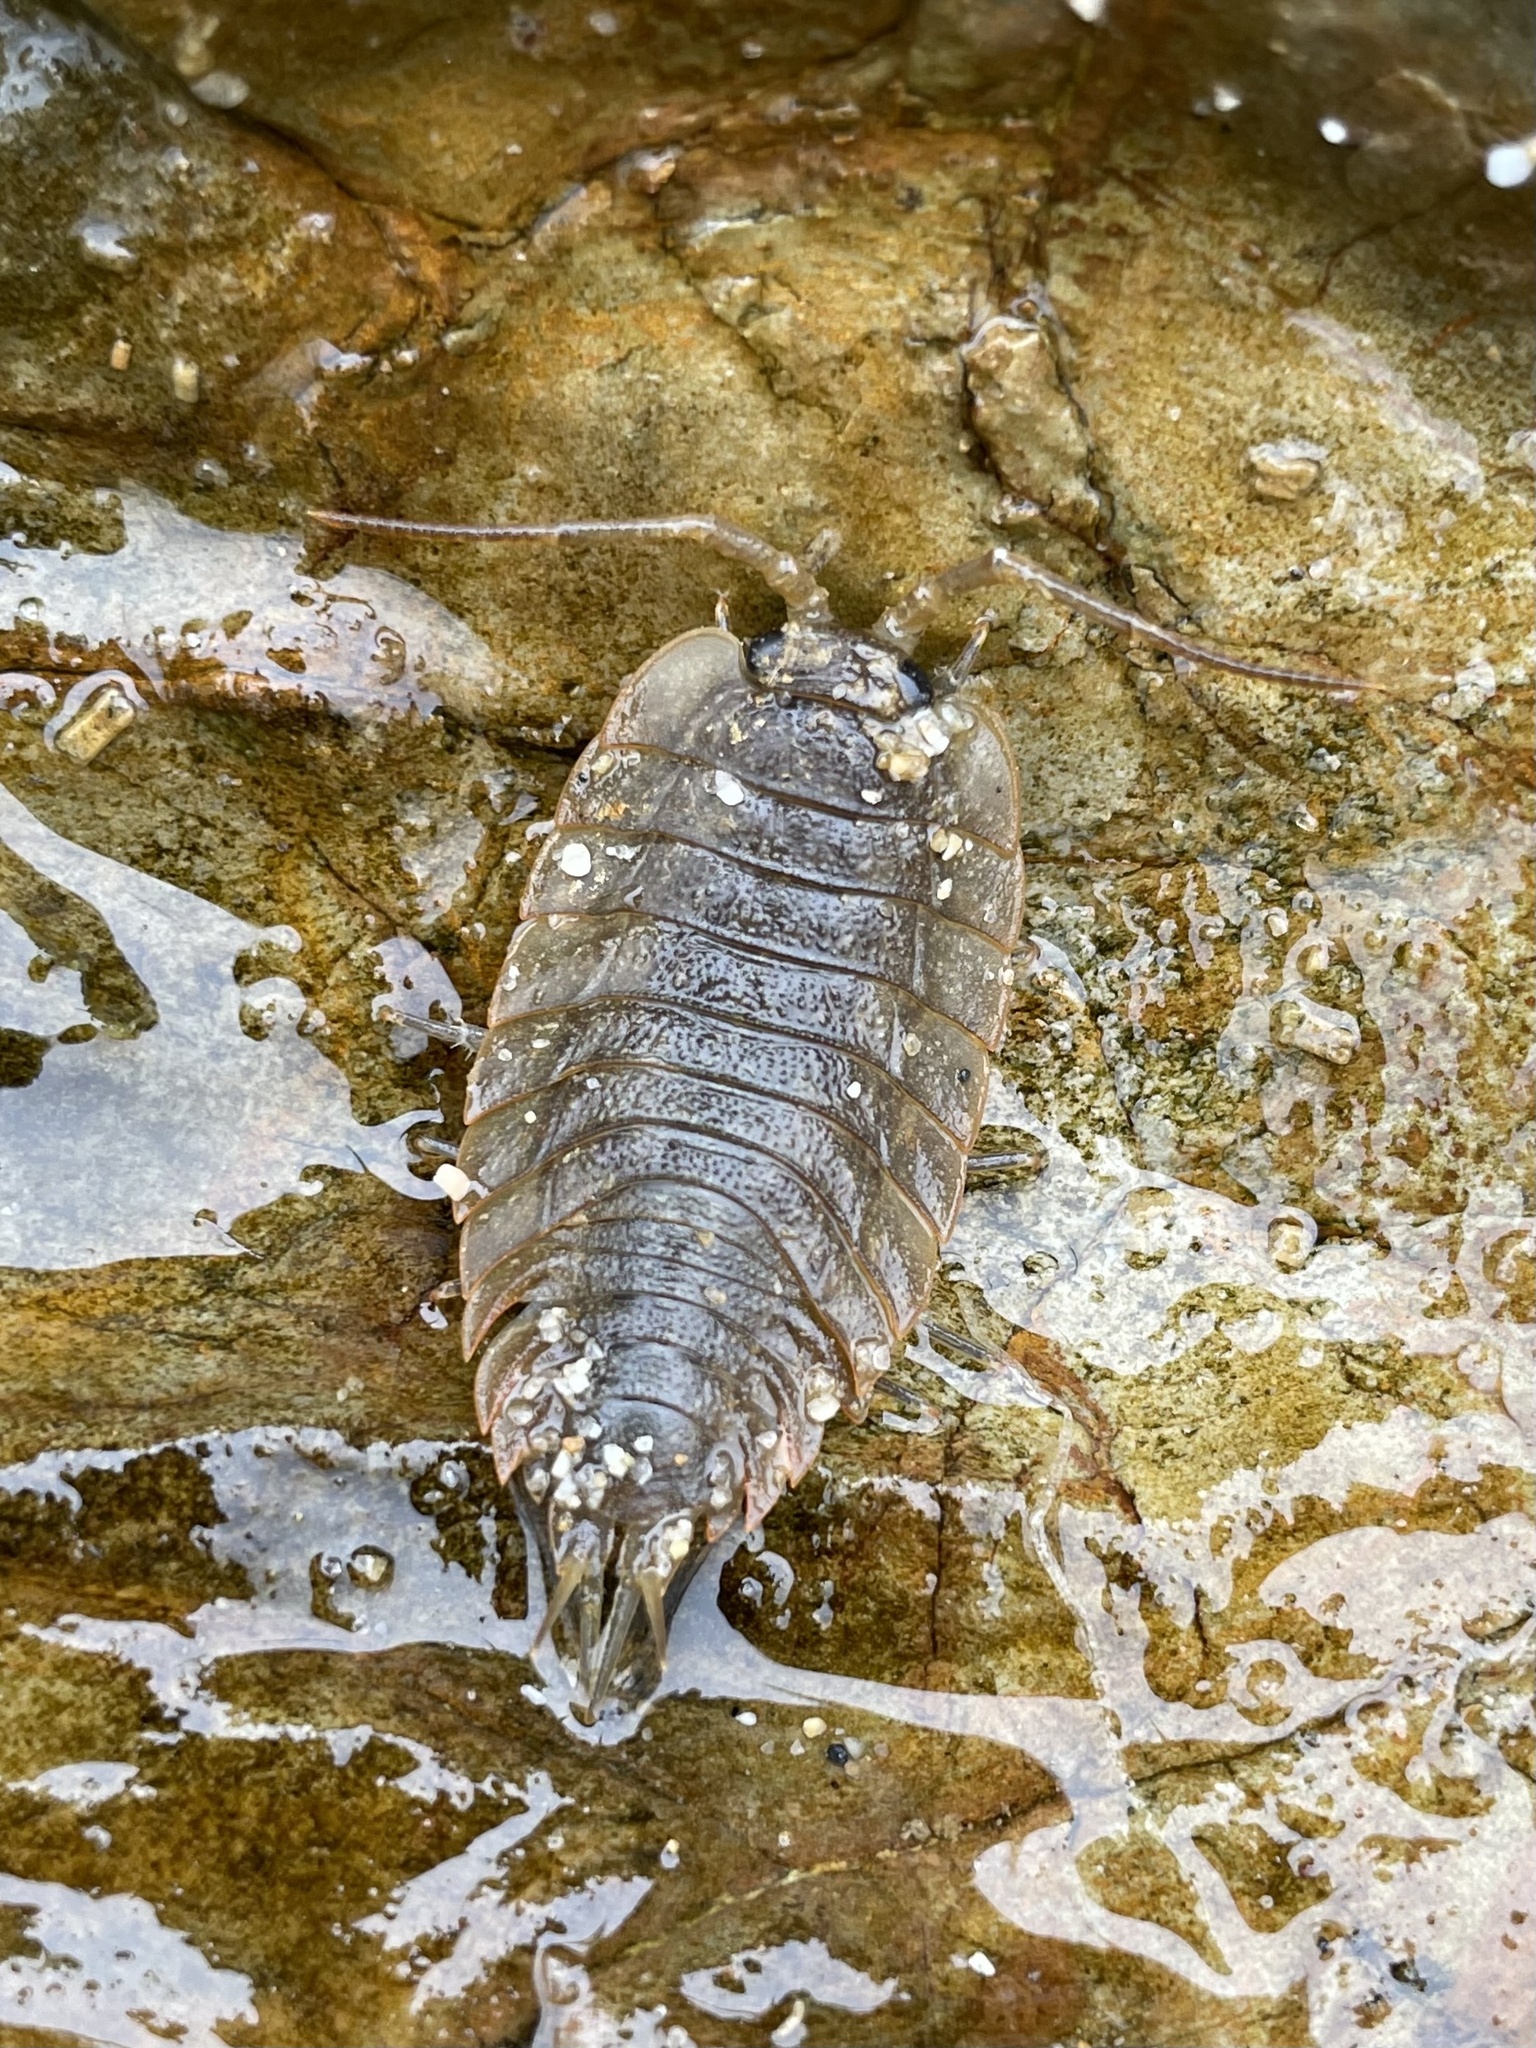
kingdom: Animalia
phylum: Arthropoda
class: Malacostraca
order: Isopoda
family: Ligiidae
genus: Ligia
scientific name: Ligia pallasii
